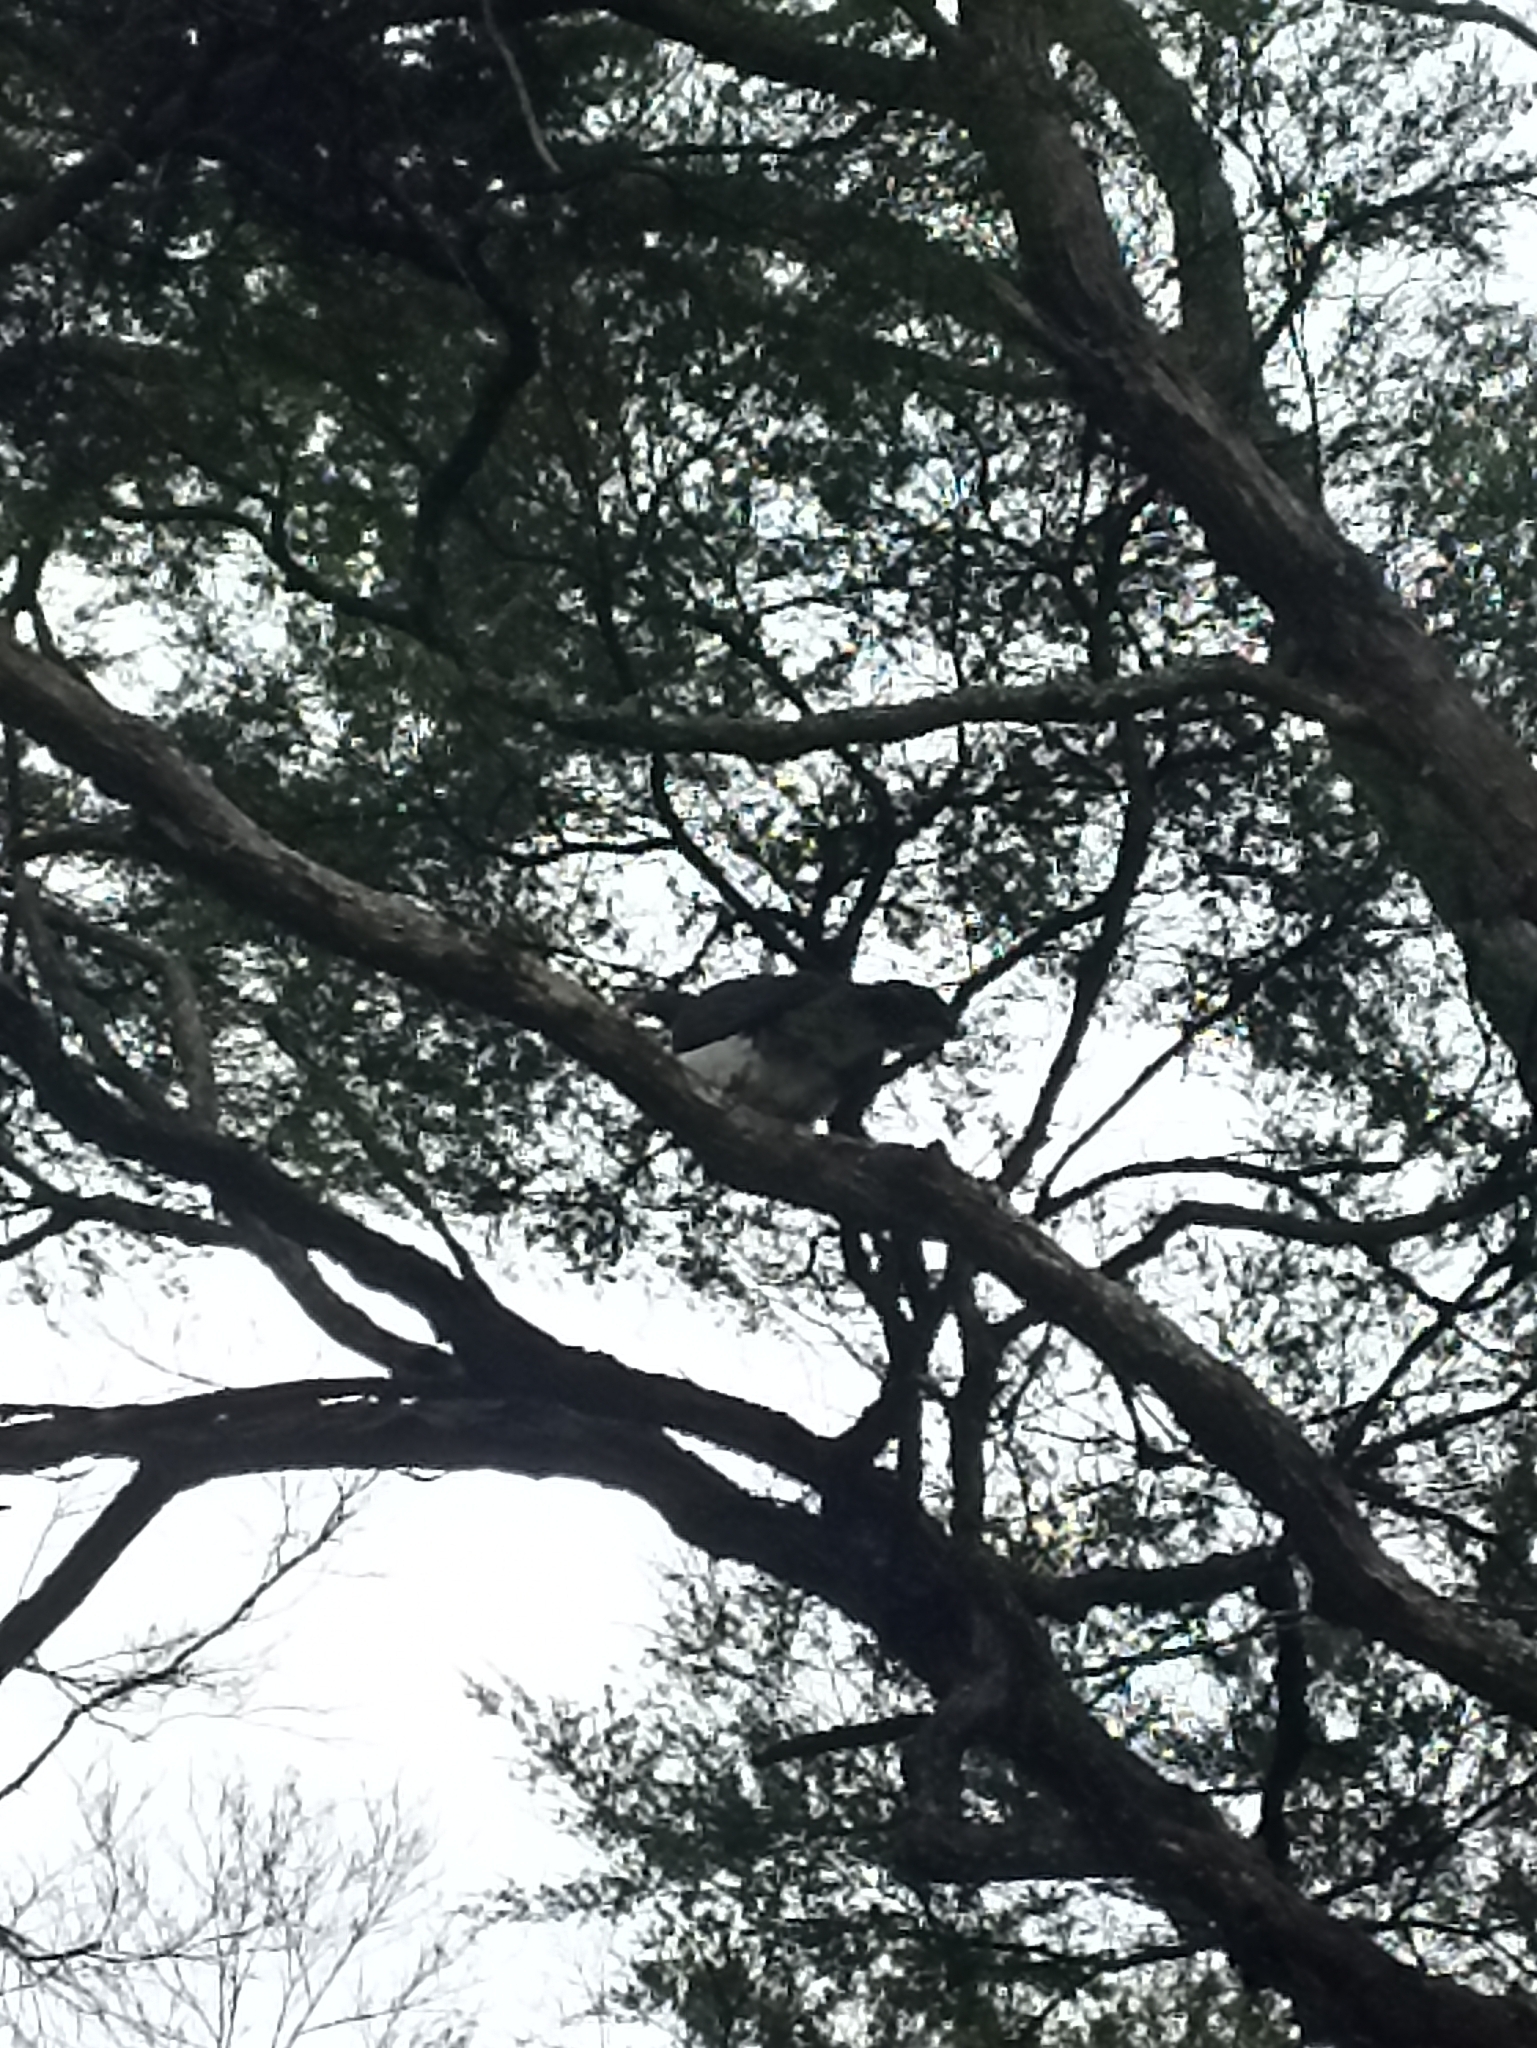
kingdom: Animalia
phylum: Chordata
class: Aves
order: Columbiformes
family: Columbidae
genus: Hemiphaga
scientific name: Hemiphaga novaeseelandiae
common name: New zealand pigeon
